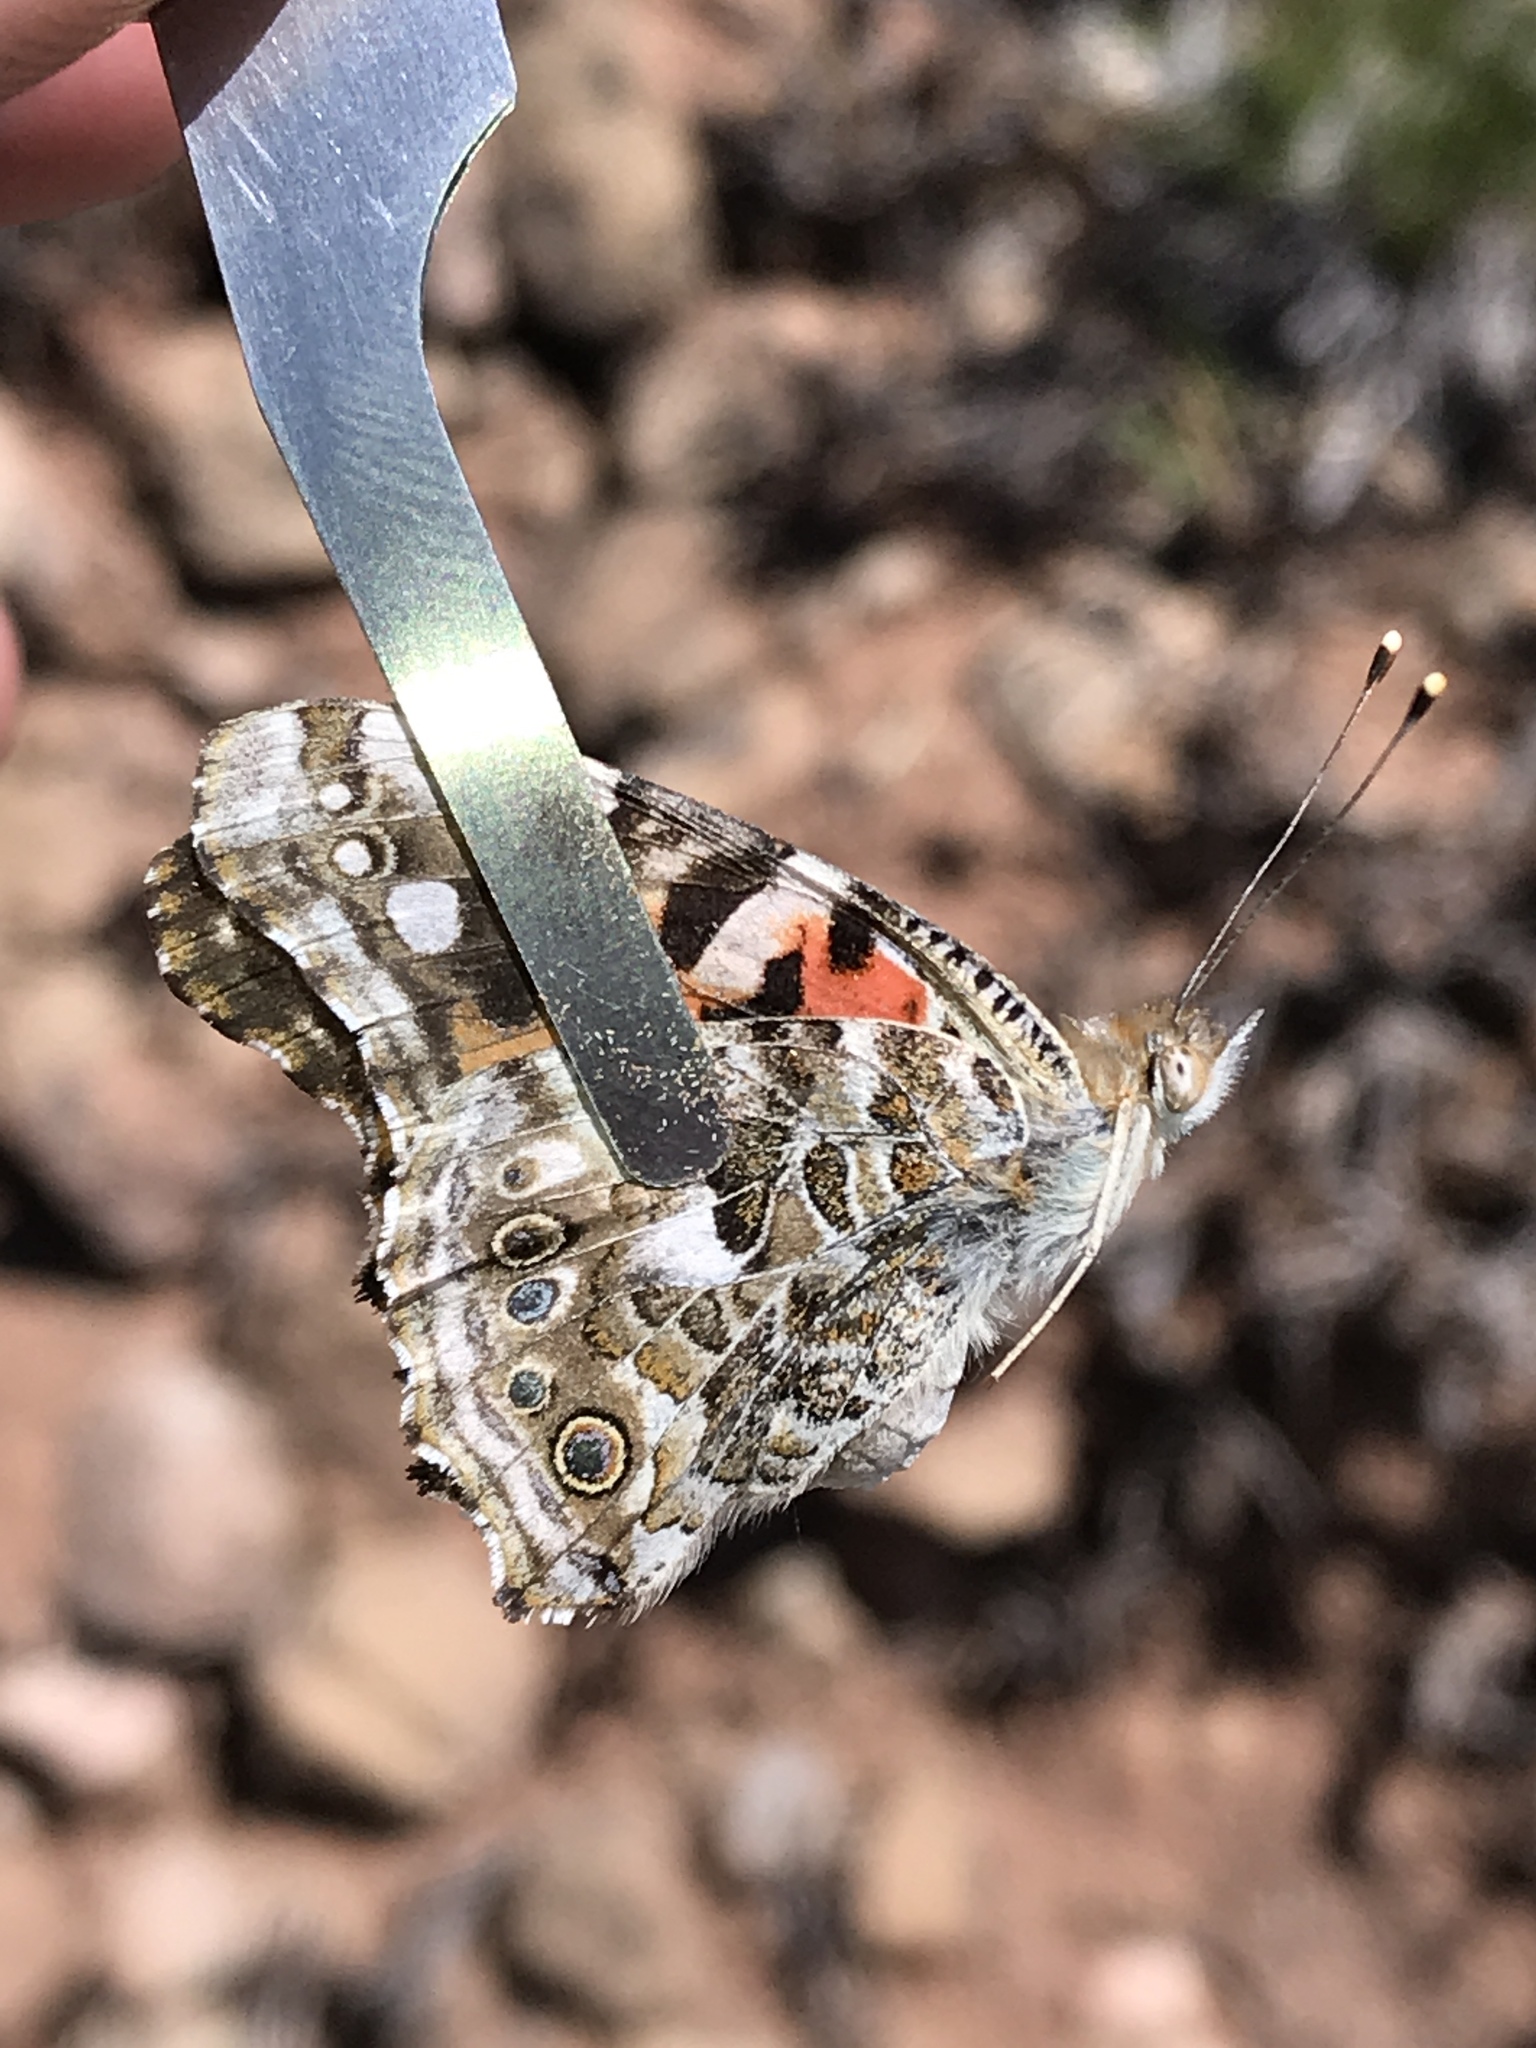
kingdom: Animalia
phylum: Arthropoda
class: Insecta
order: Lepidoptera
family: Nymphalidae
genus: Vanessa
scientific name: Vanessa cardui
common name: Painted lady
